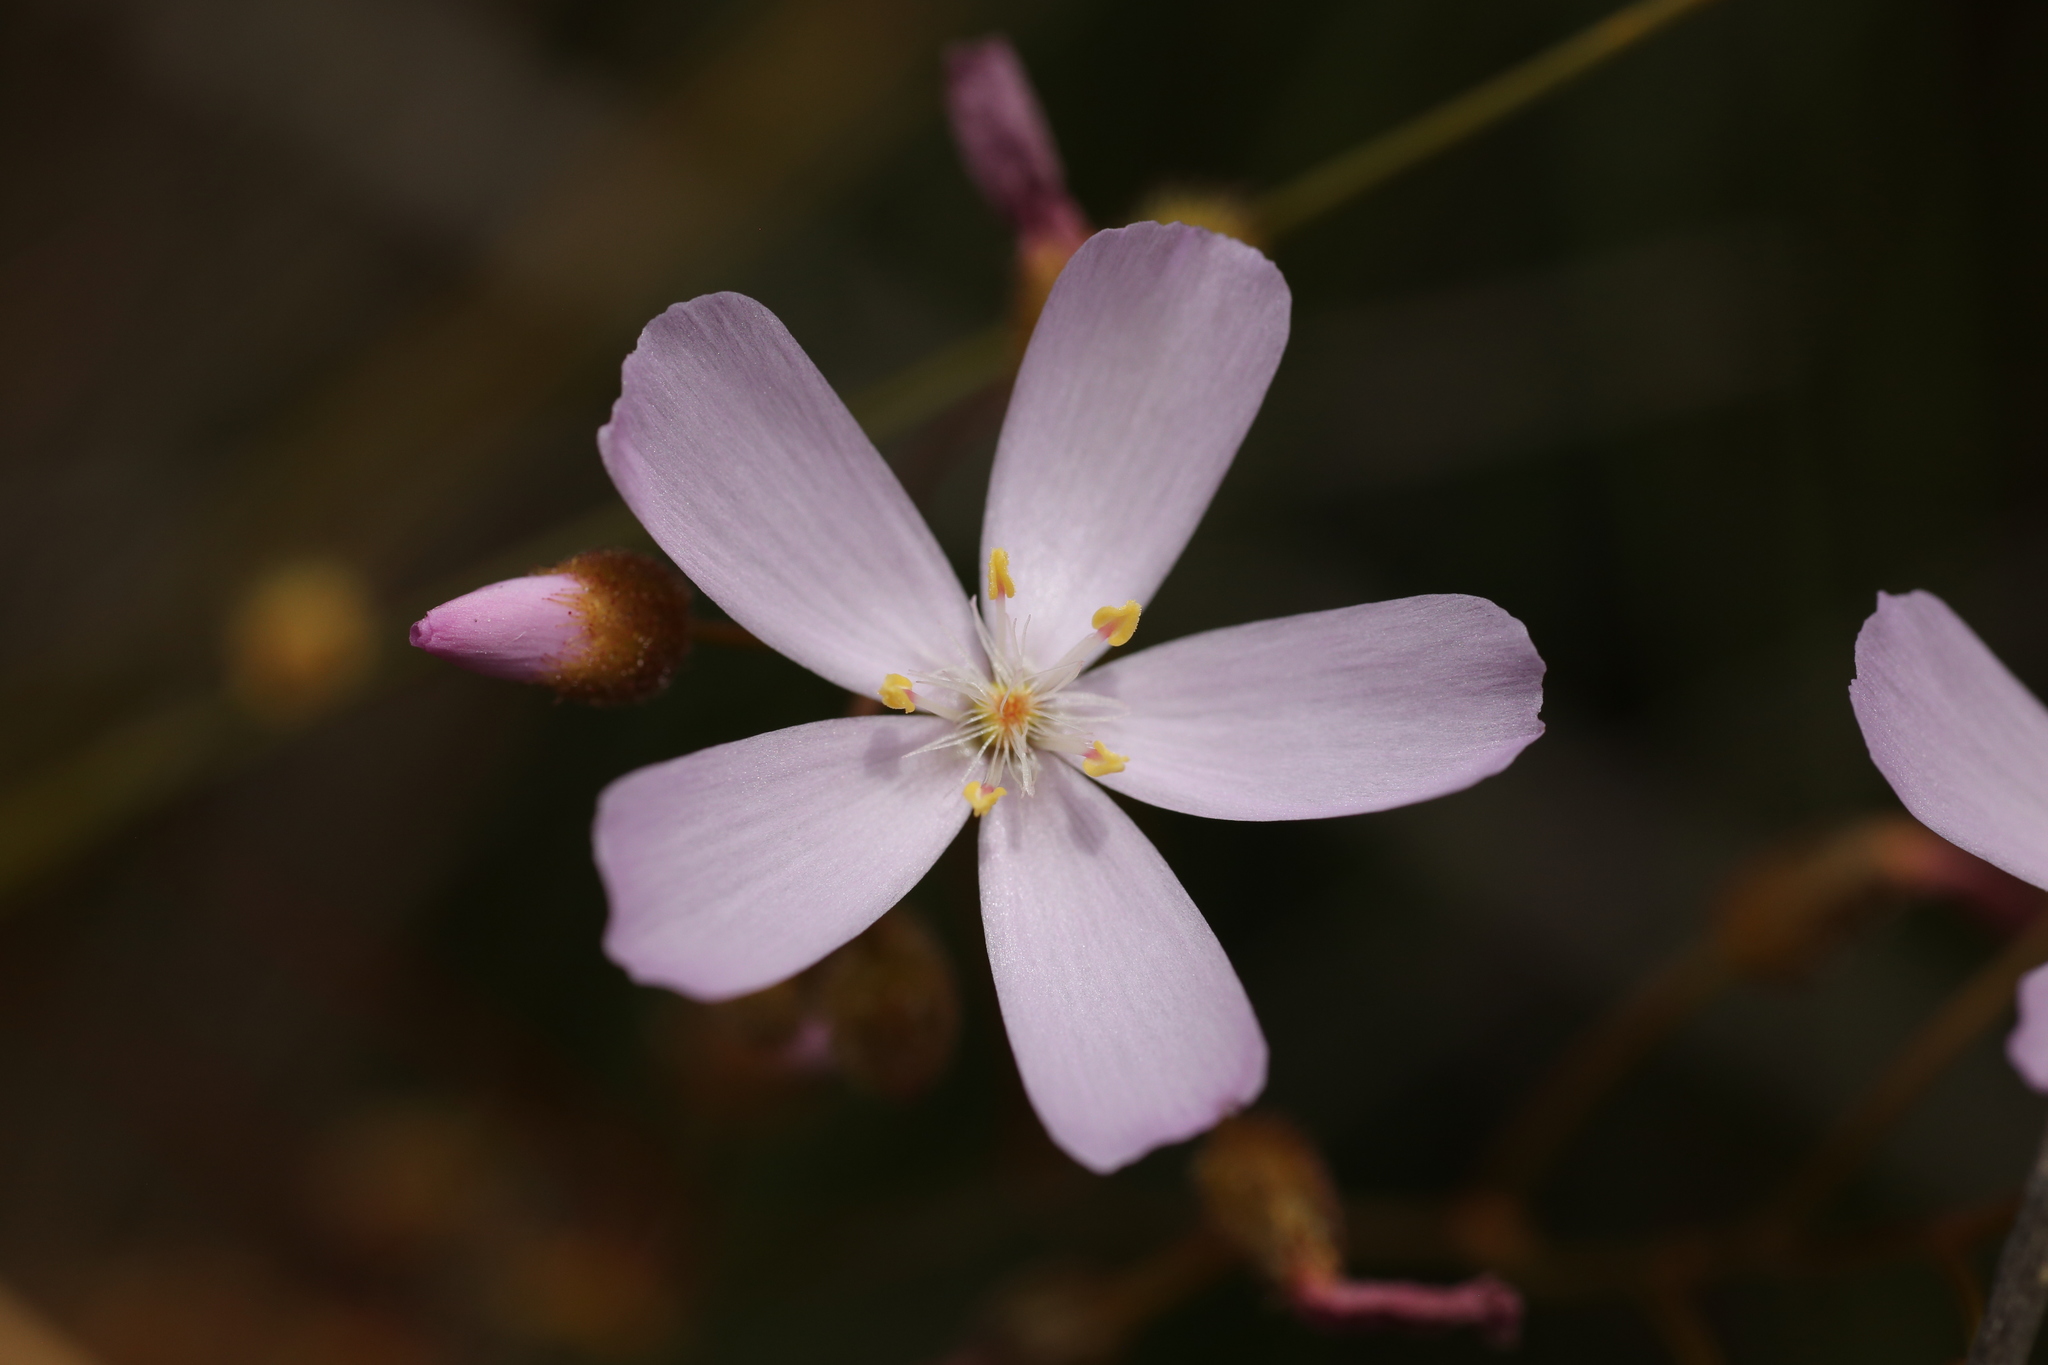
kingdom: Plantae
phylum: Tracheophyta
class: Magnoliopsida
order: Caryophyllales
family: Droseraceae
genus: Drosera
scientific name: Drosera
